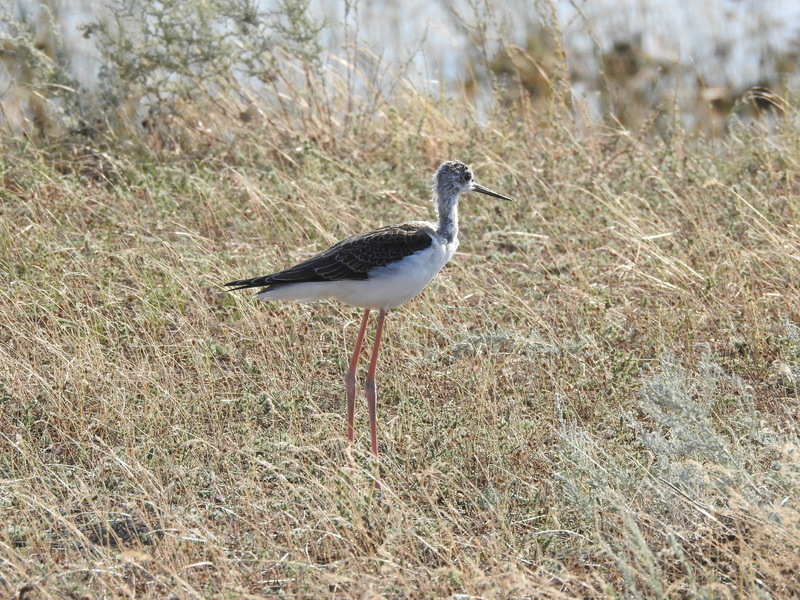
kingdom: Animalia
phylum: Chordata
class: Aves
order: Charadriiformes
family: Recurvirostridae
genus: Himantopus
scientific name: Himantopus himantopus
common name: Black-winged stilt
